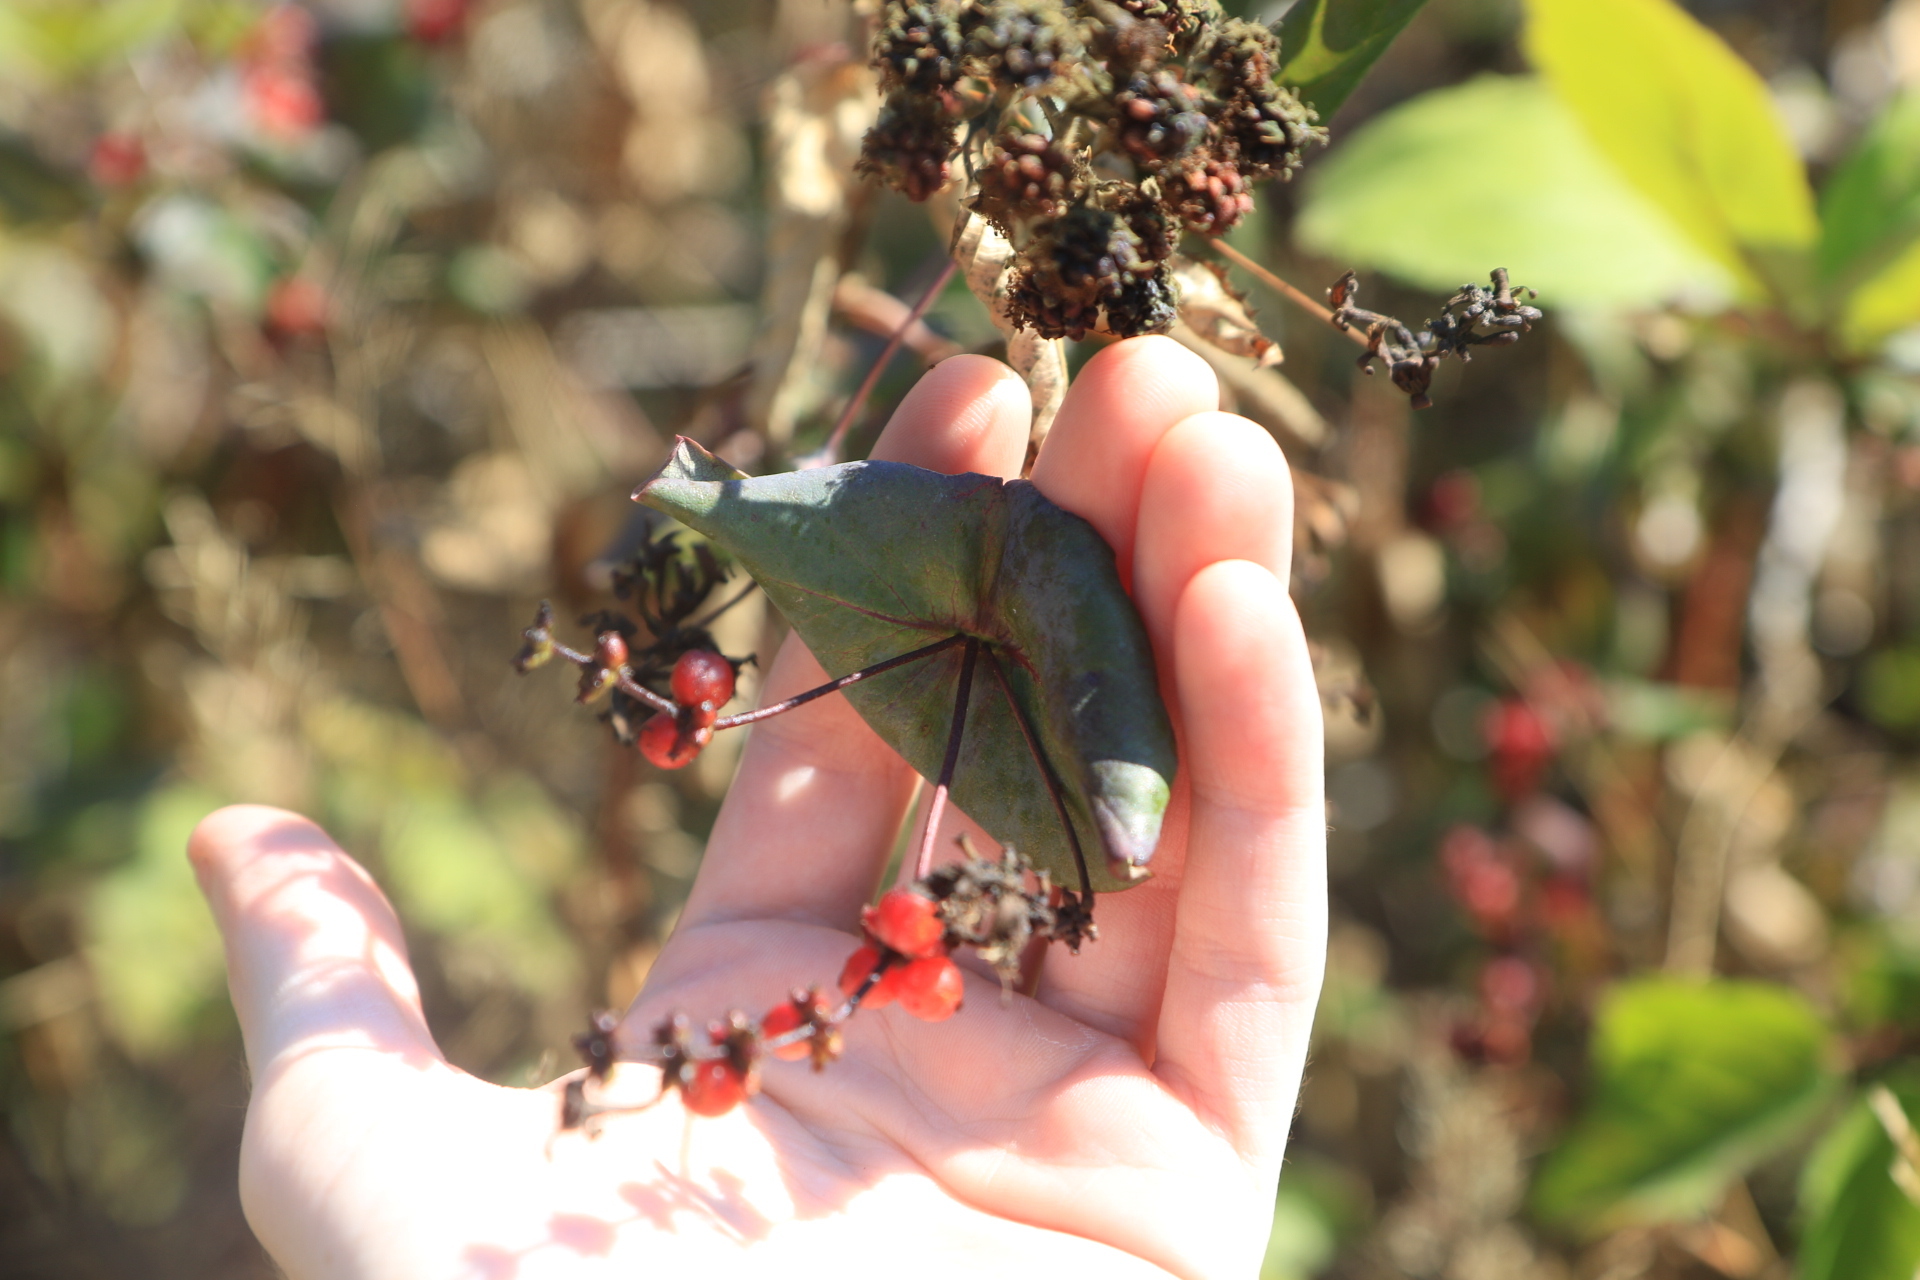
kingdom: Plantae
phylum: Tracheophyta
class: Magnoliopsida
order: Dipsacales
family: Caprifoliaceae
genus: Lonicera
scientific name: Lonicera hispidula
